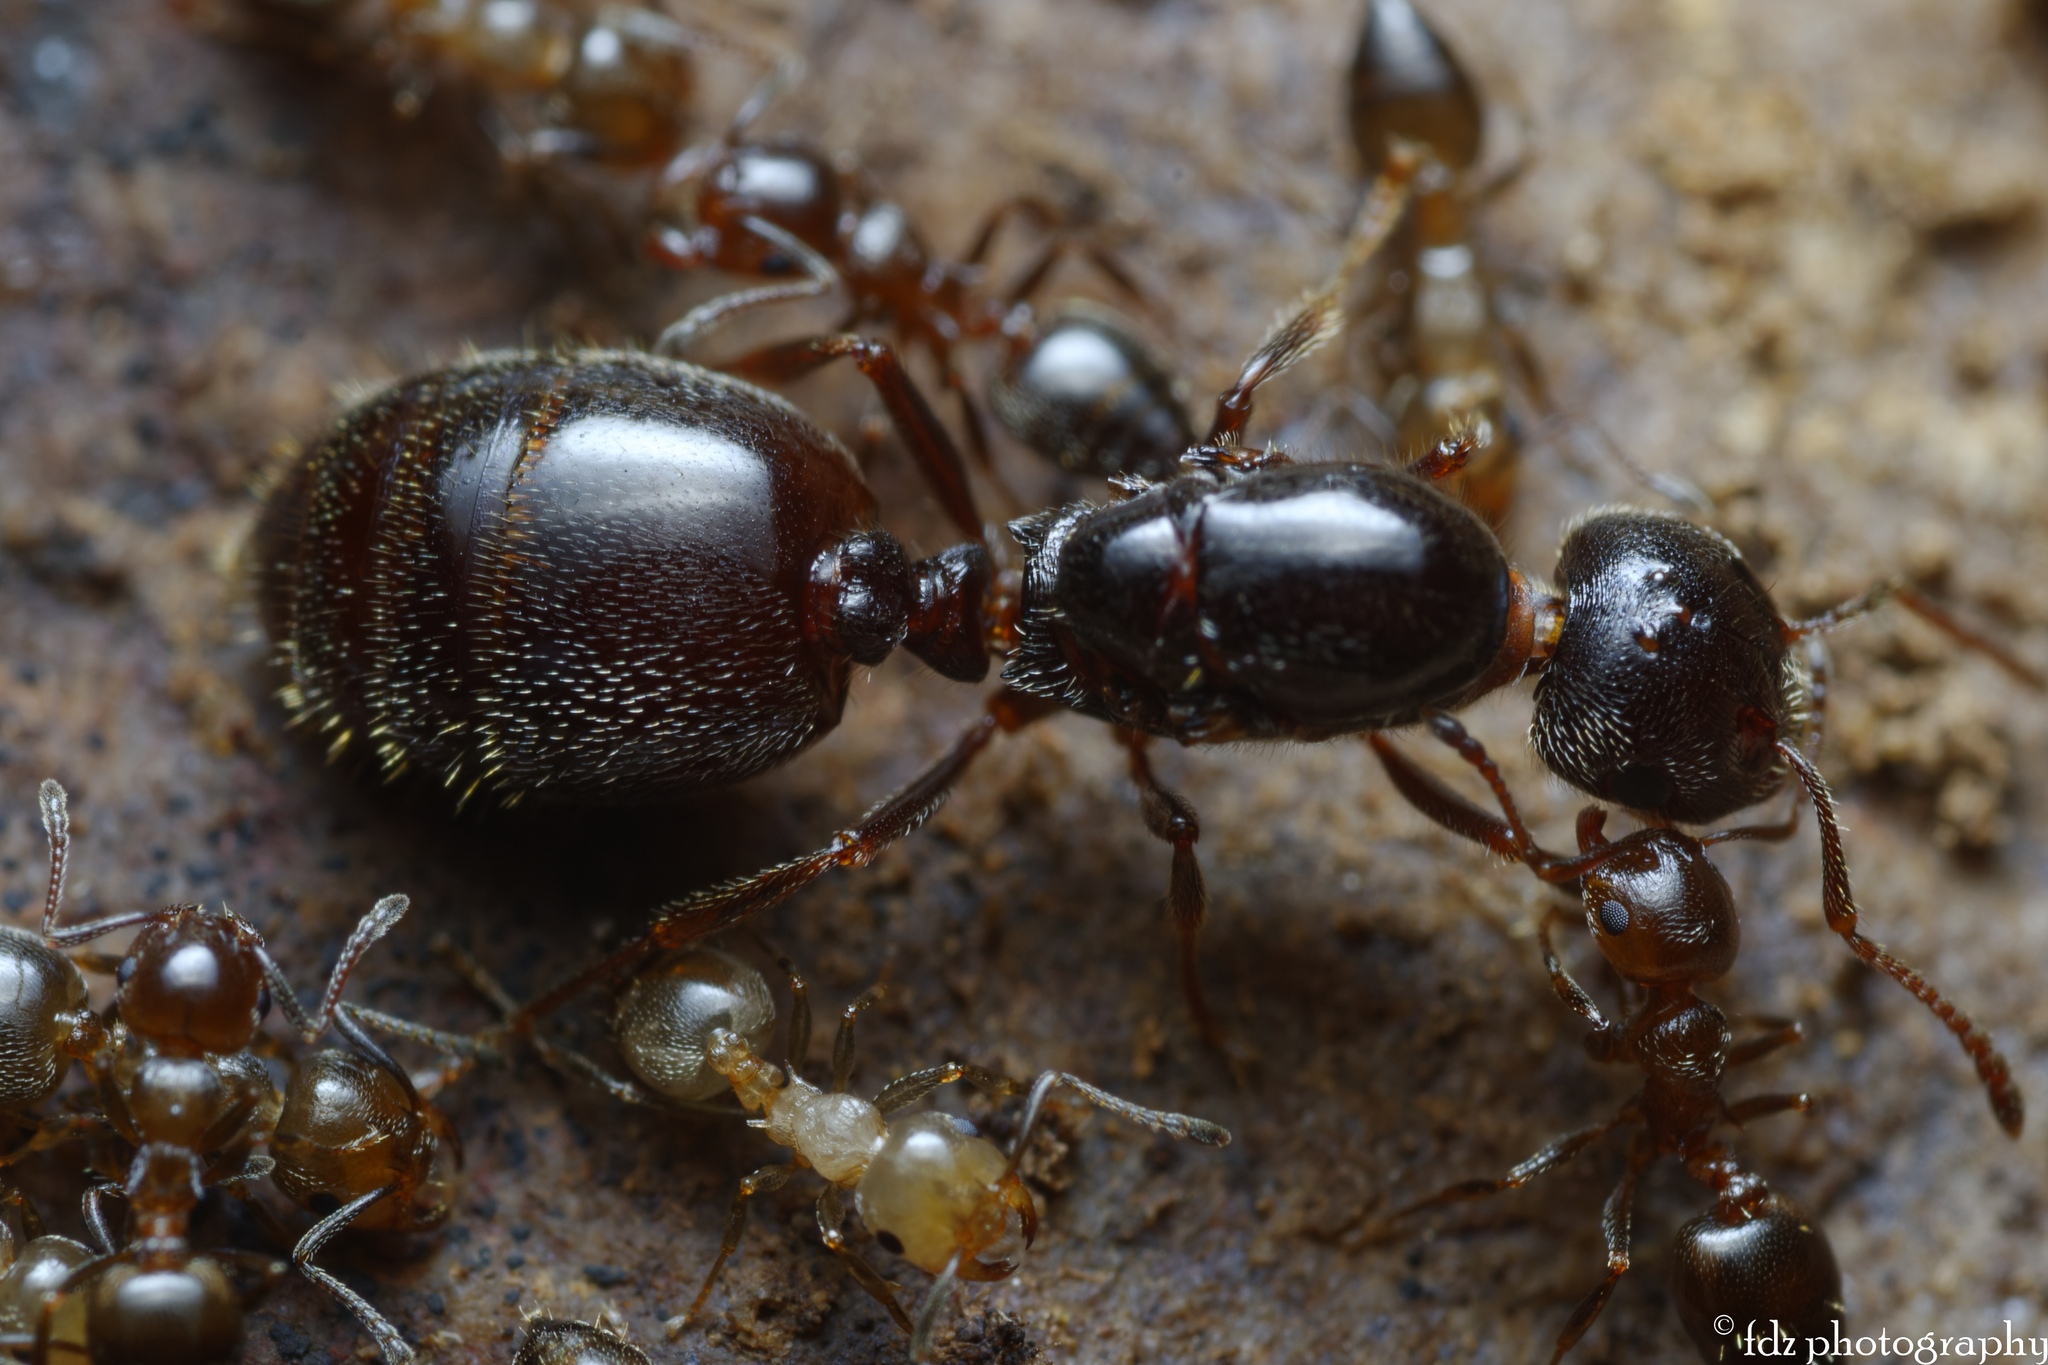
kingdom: Animalia
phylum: Arthropoda
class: Insecta
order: Hymenoptera
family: Formicidae
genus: Crematogaster
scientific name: Crematogaster auberti
